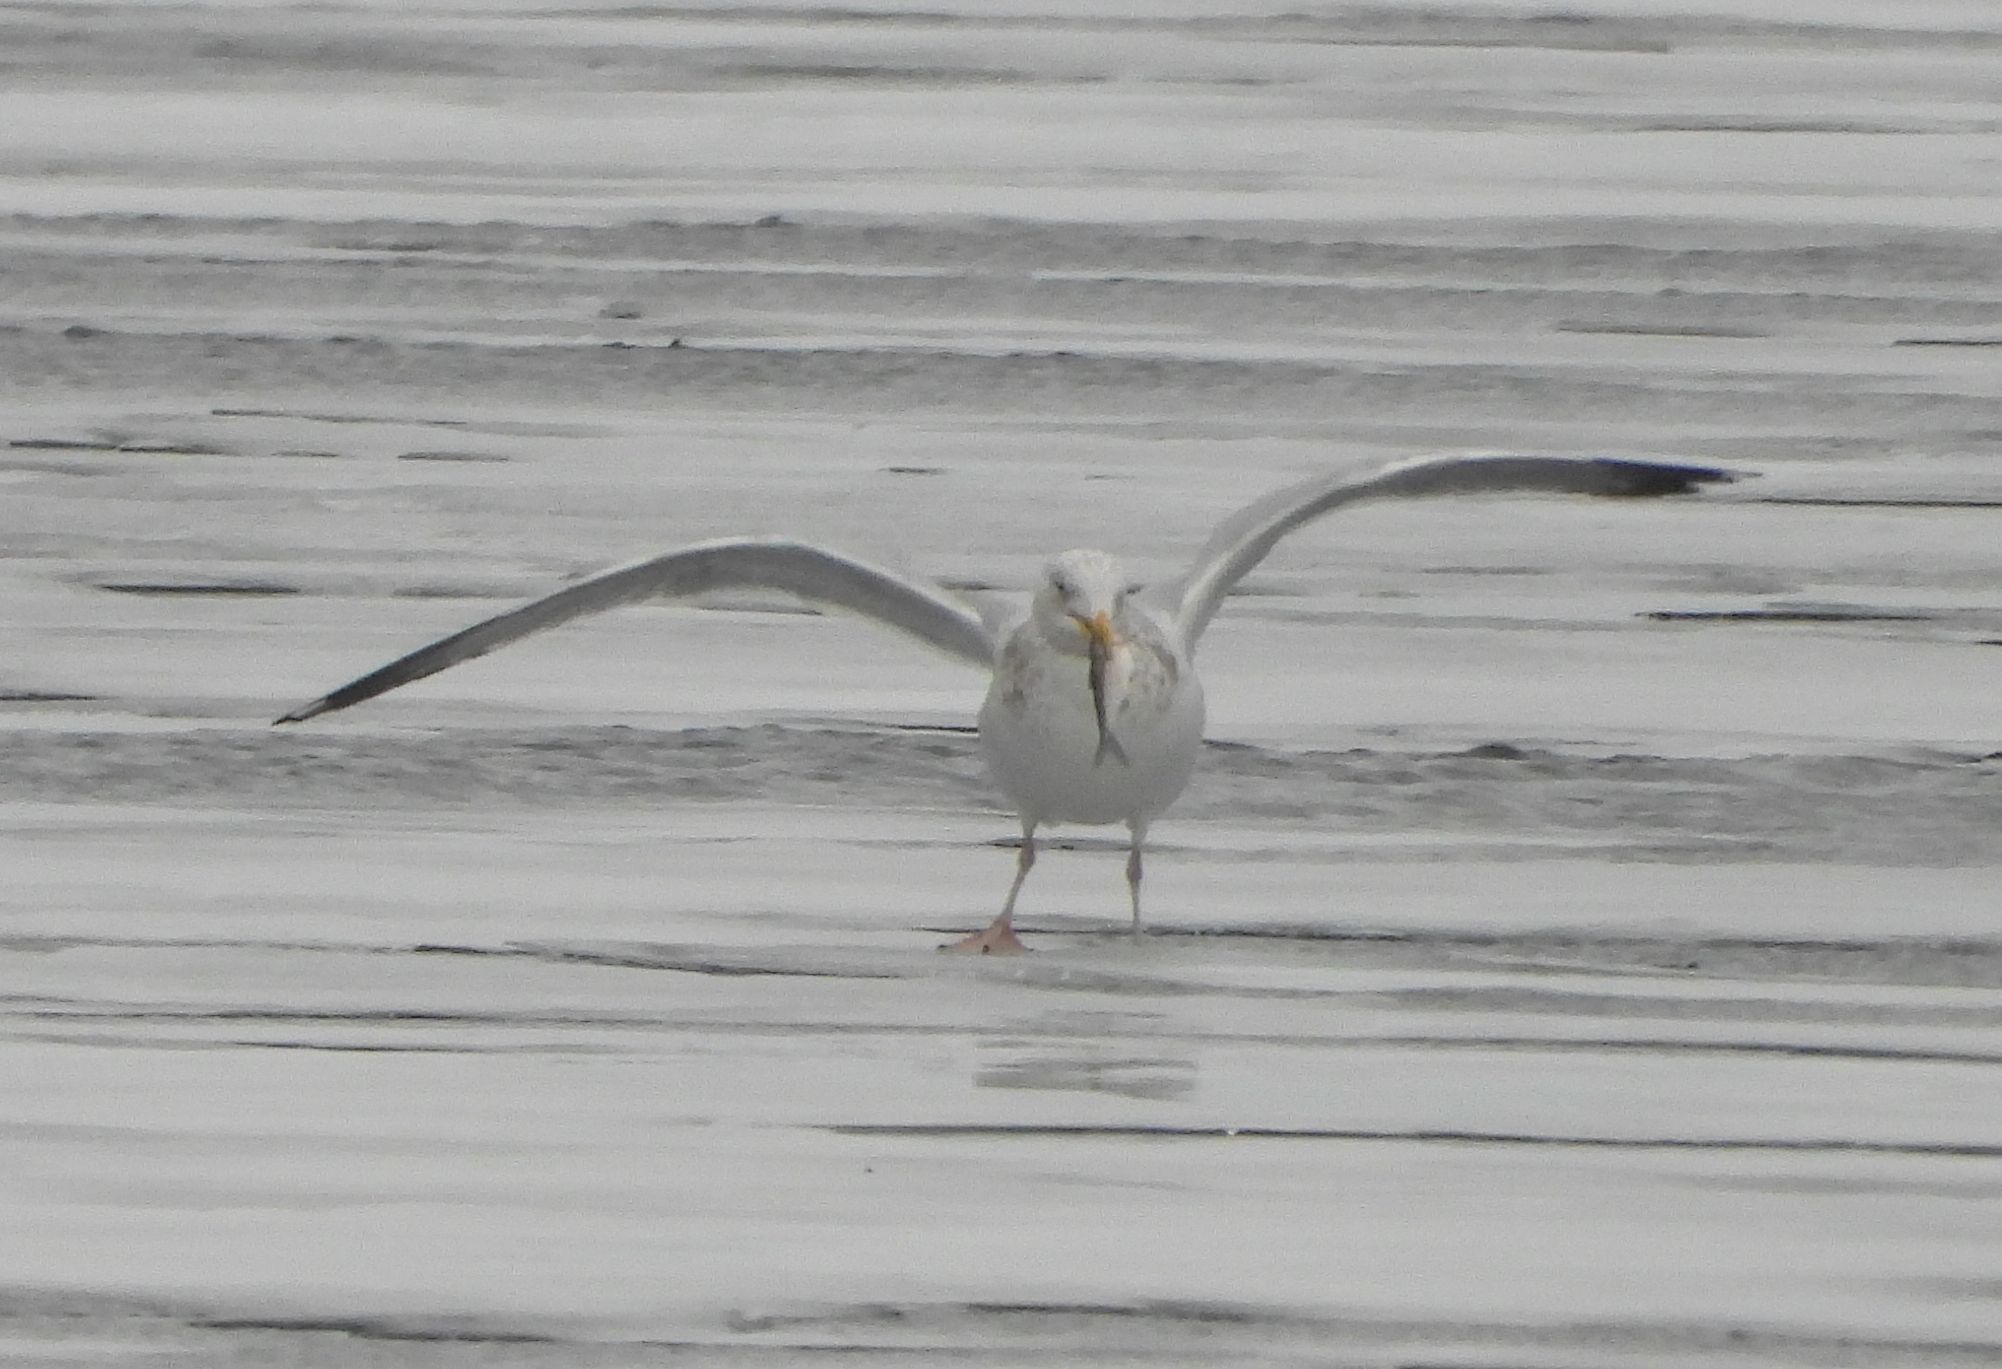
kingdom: Animalia
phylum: Chordata
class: Aves
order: Charadriiformes
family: Laridae
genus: Larus
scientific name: Larus argentatus
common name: Herring gull
